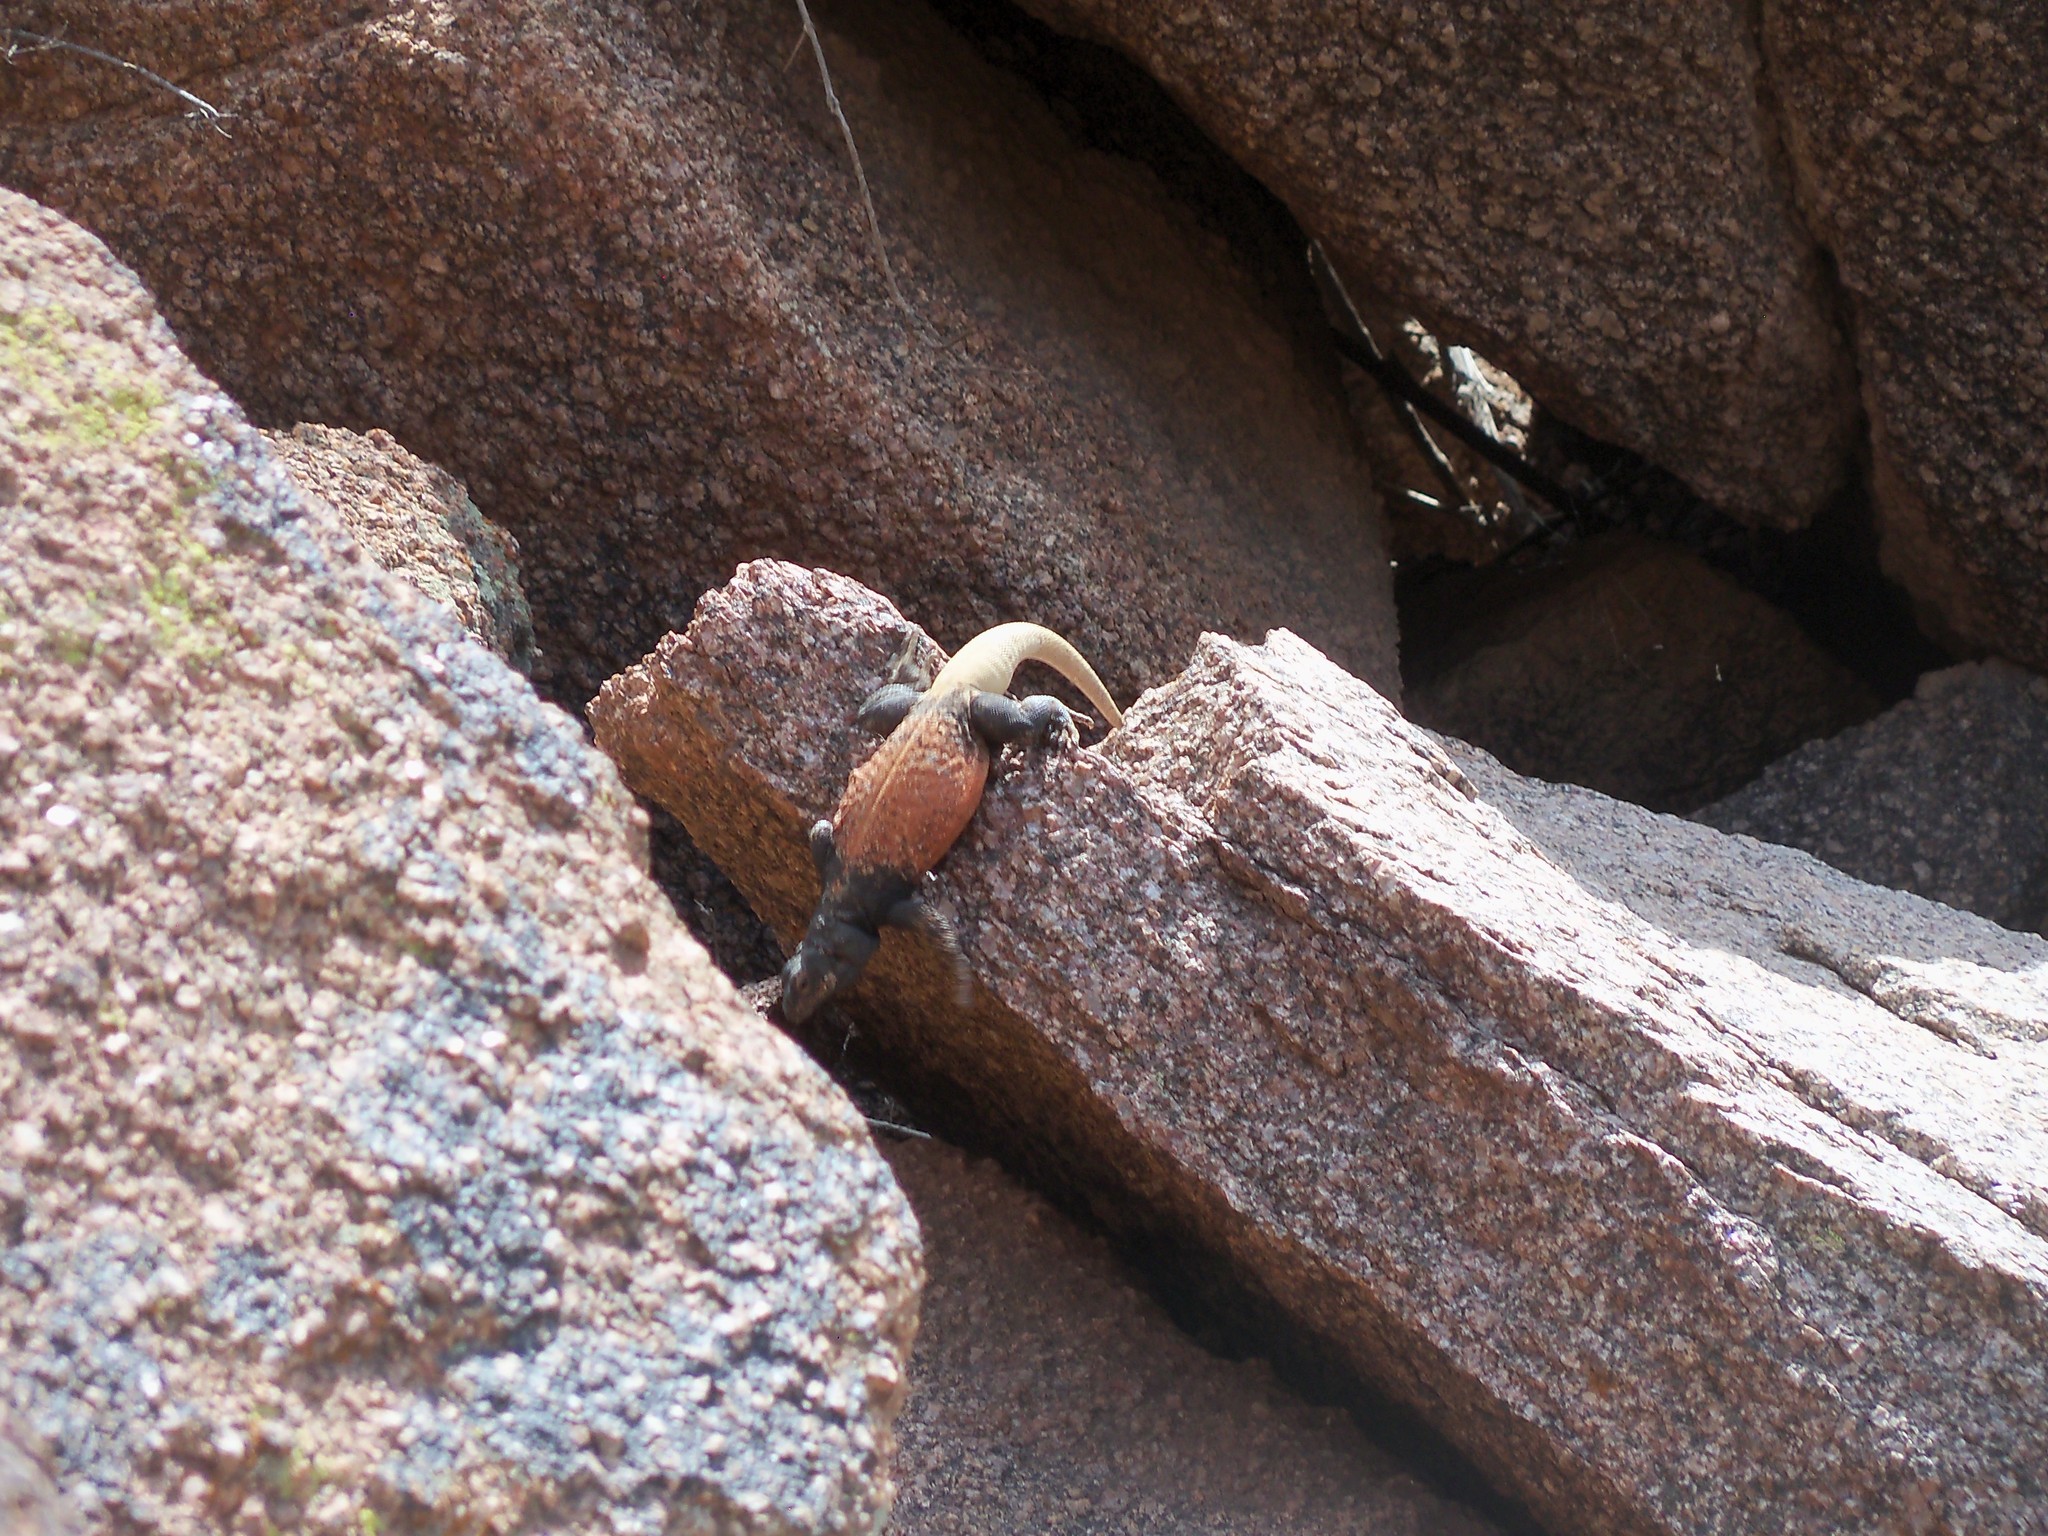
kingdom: Animalia
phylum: Chordata
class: Squamata
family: Iguanidae
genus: Sauromalus
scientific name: Sauromalus ater
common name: Northern chuckwalla
